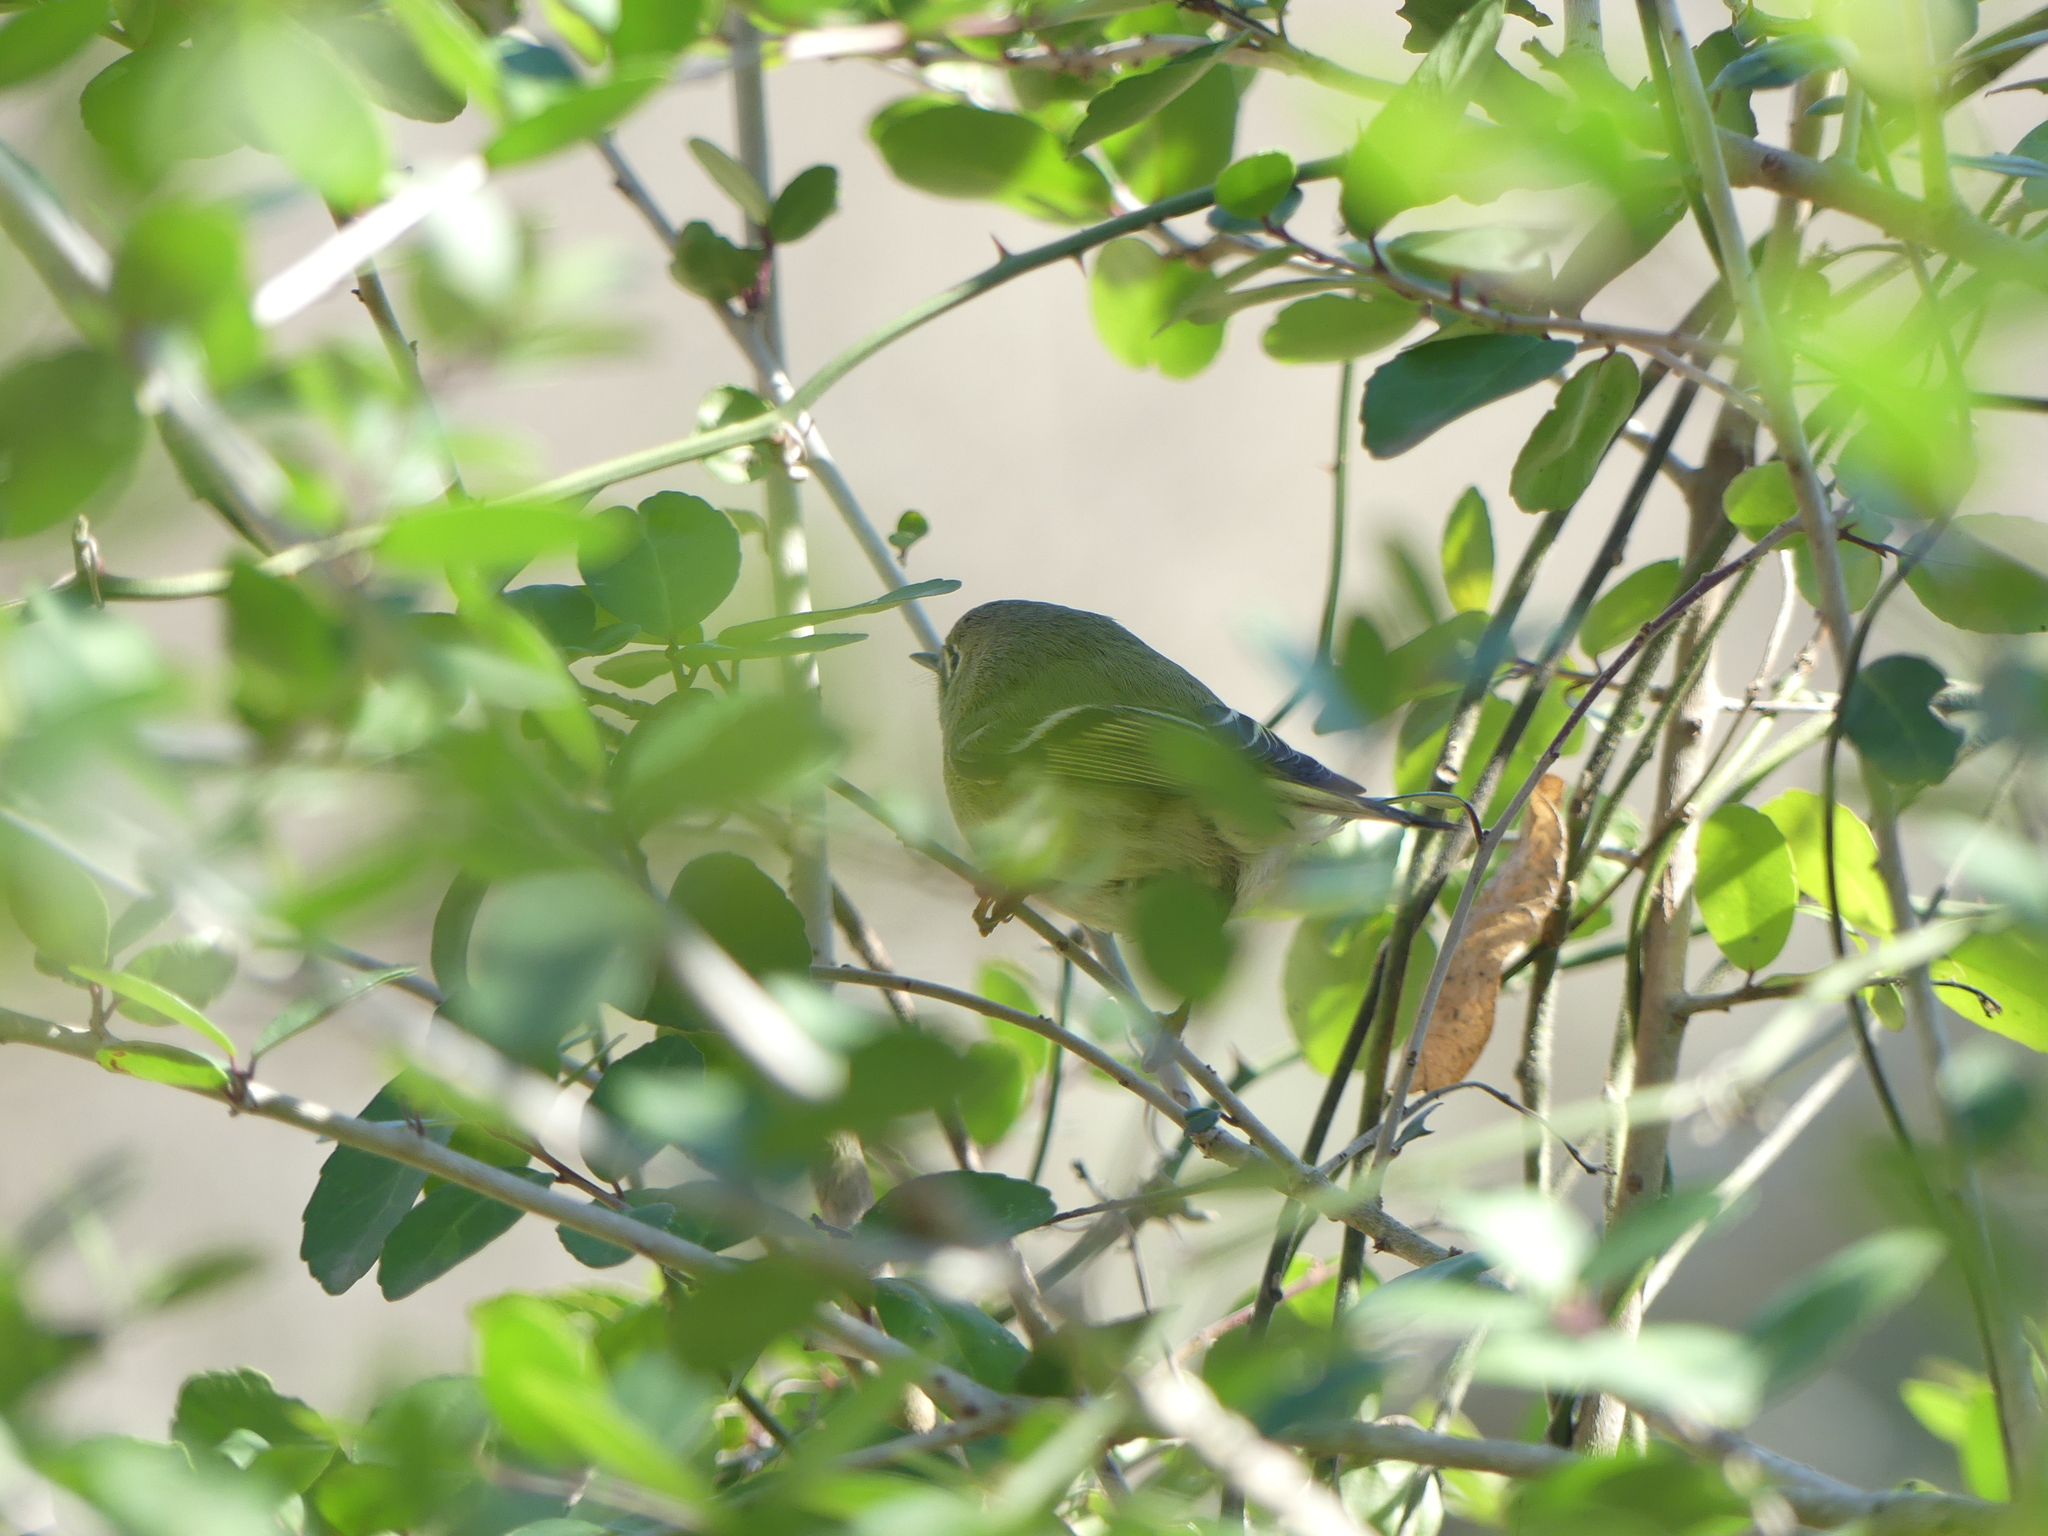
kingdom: Animalia
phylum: Chordata
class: Aves
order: Passeriformes
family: Regulidae
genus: Regulus
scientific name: Regulus calendula
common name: Ruby-crowned kinglet
